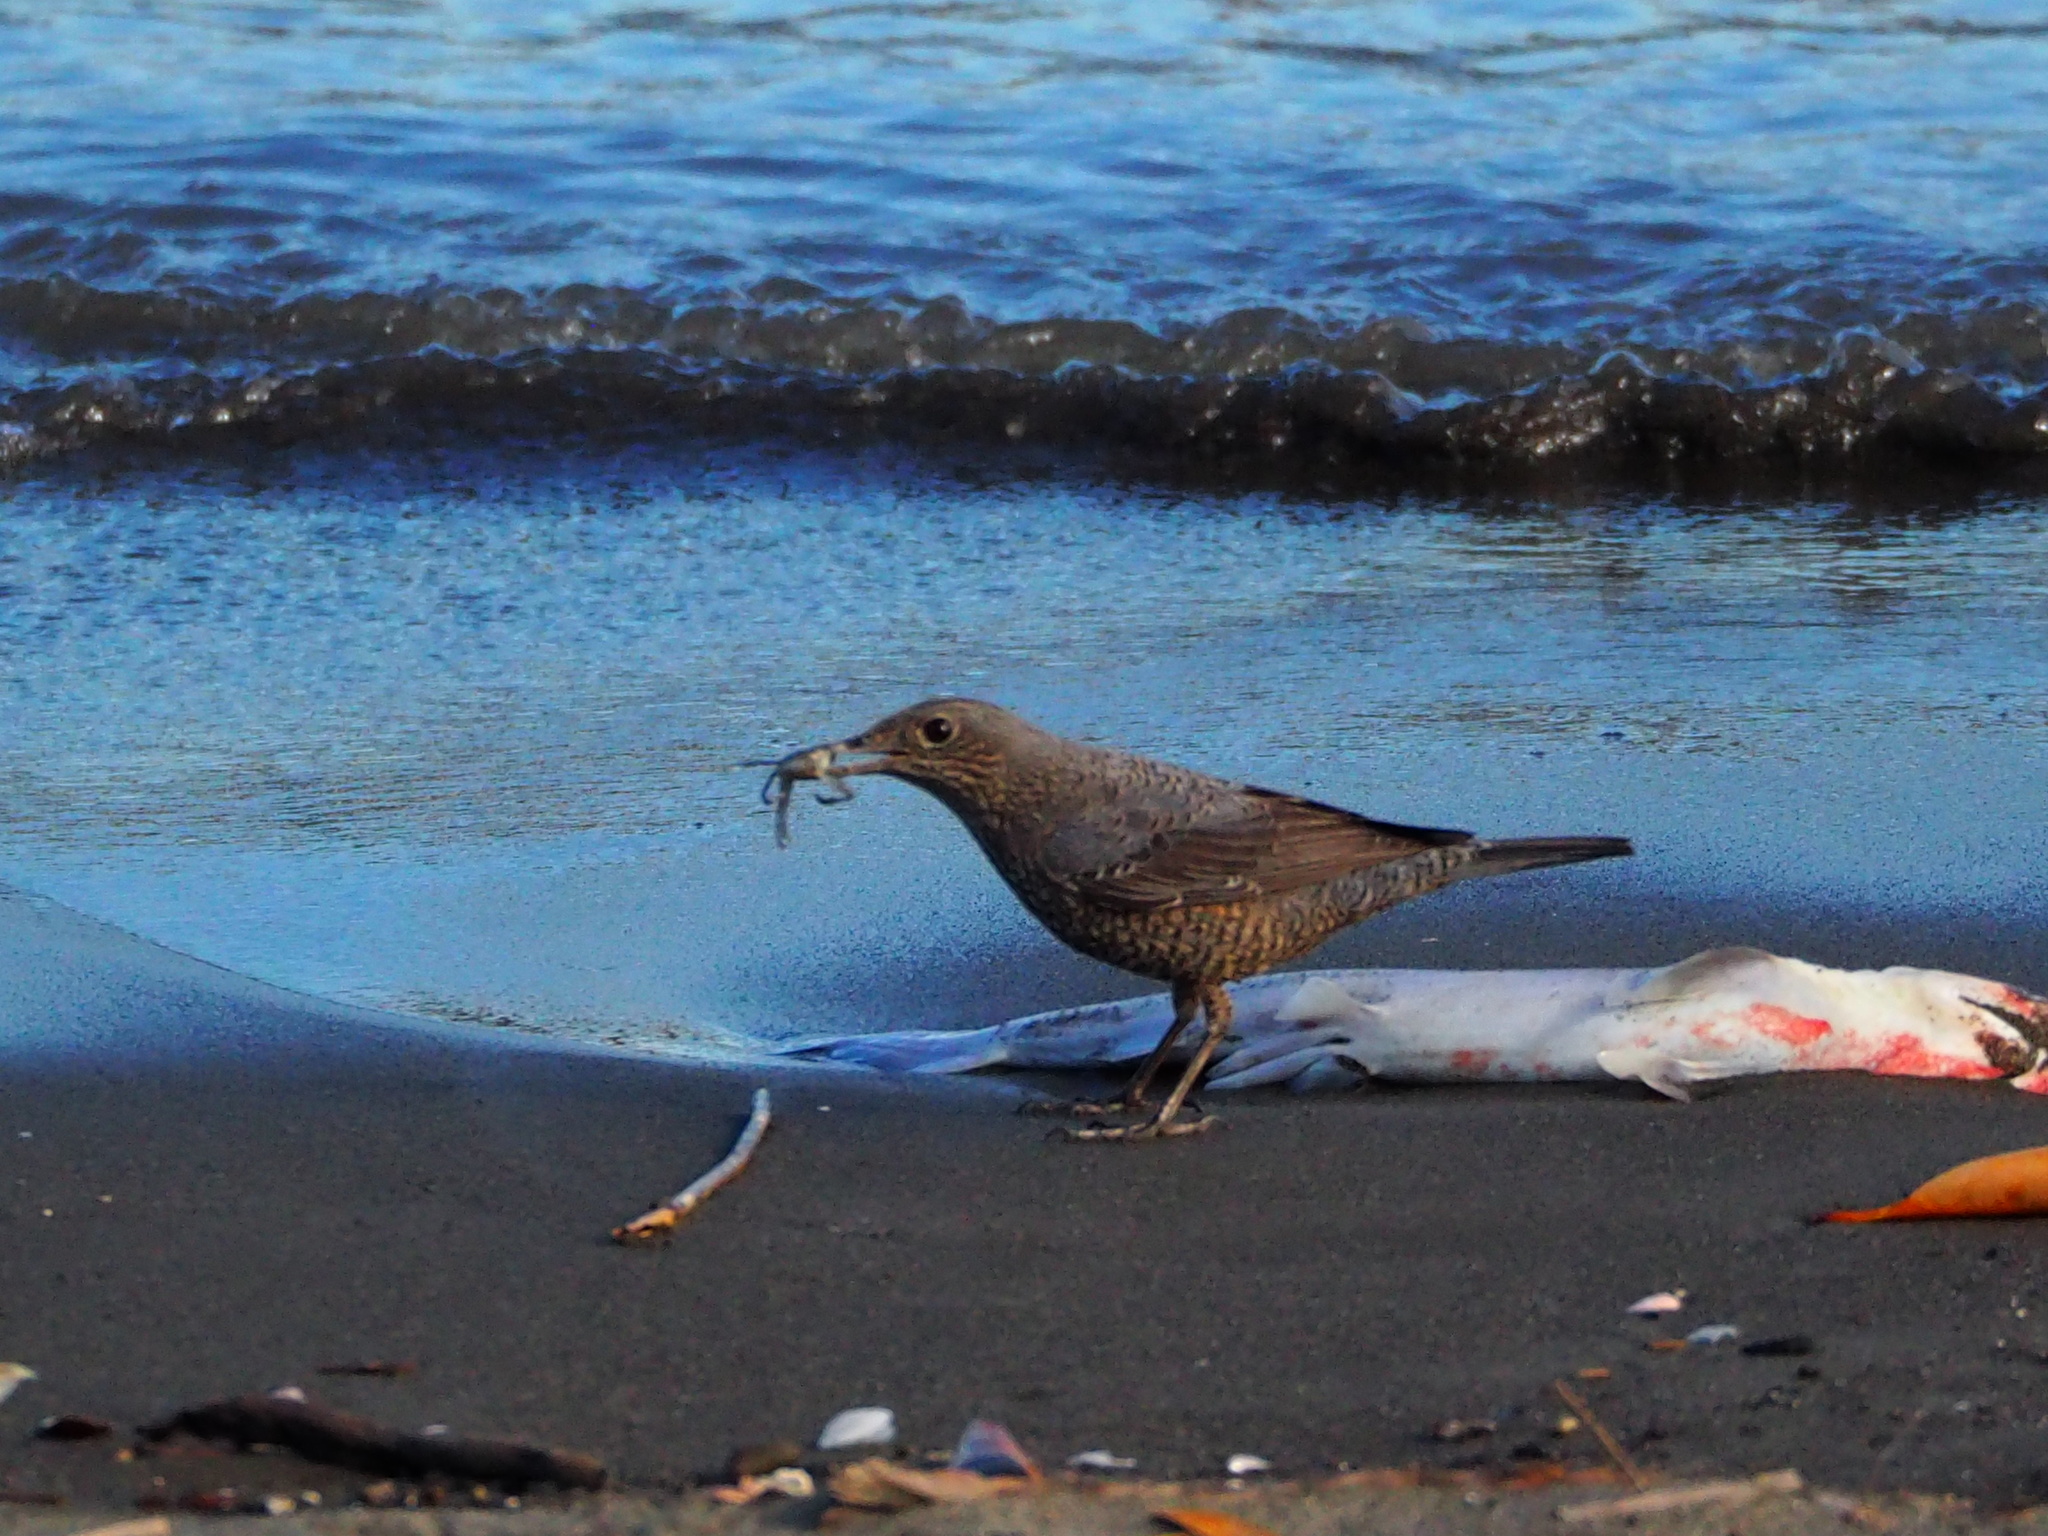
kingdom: Animalia
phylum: Chordata
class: Aves
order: Passeriformes
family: Muscicapidae
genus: Monticola
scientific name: Monticola solitarius
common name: Blue rock thrush
